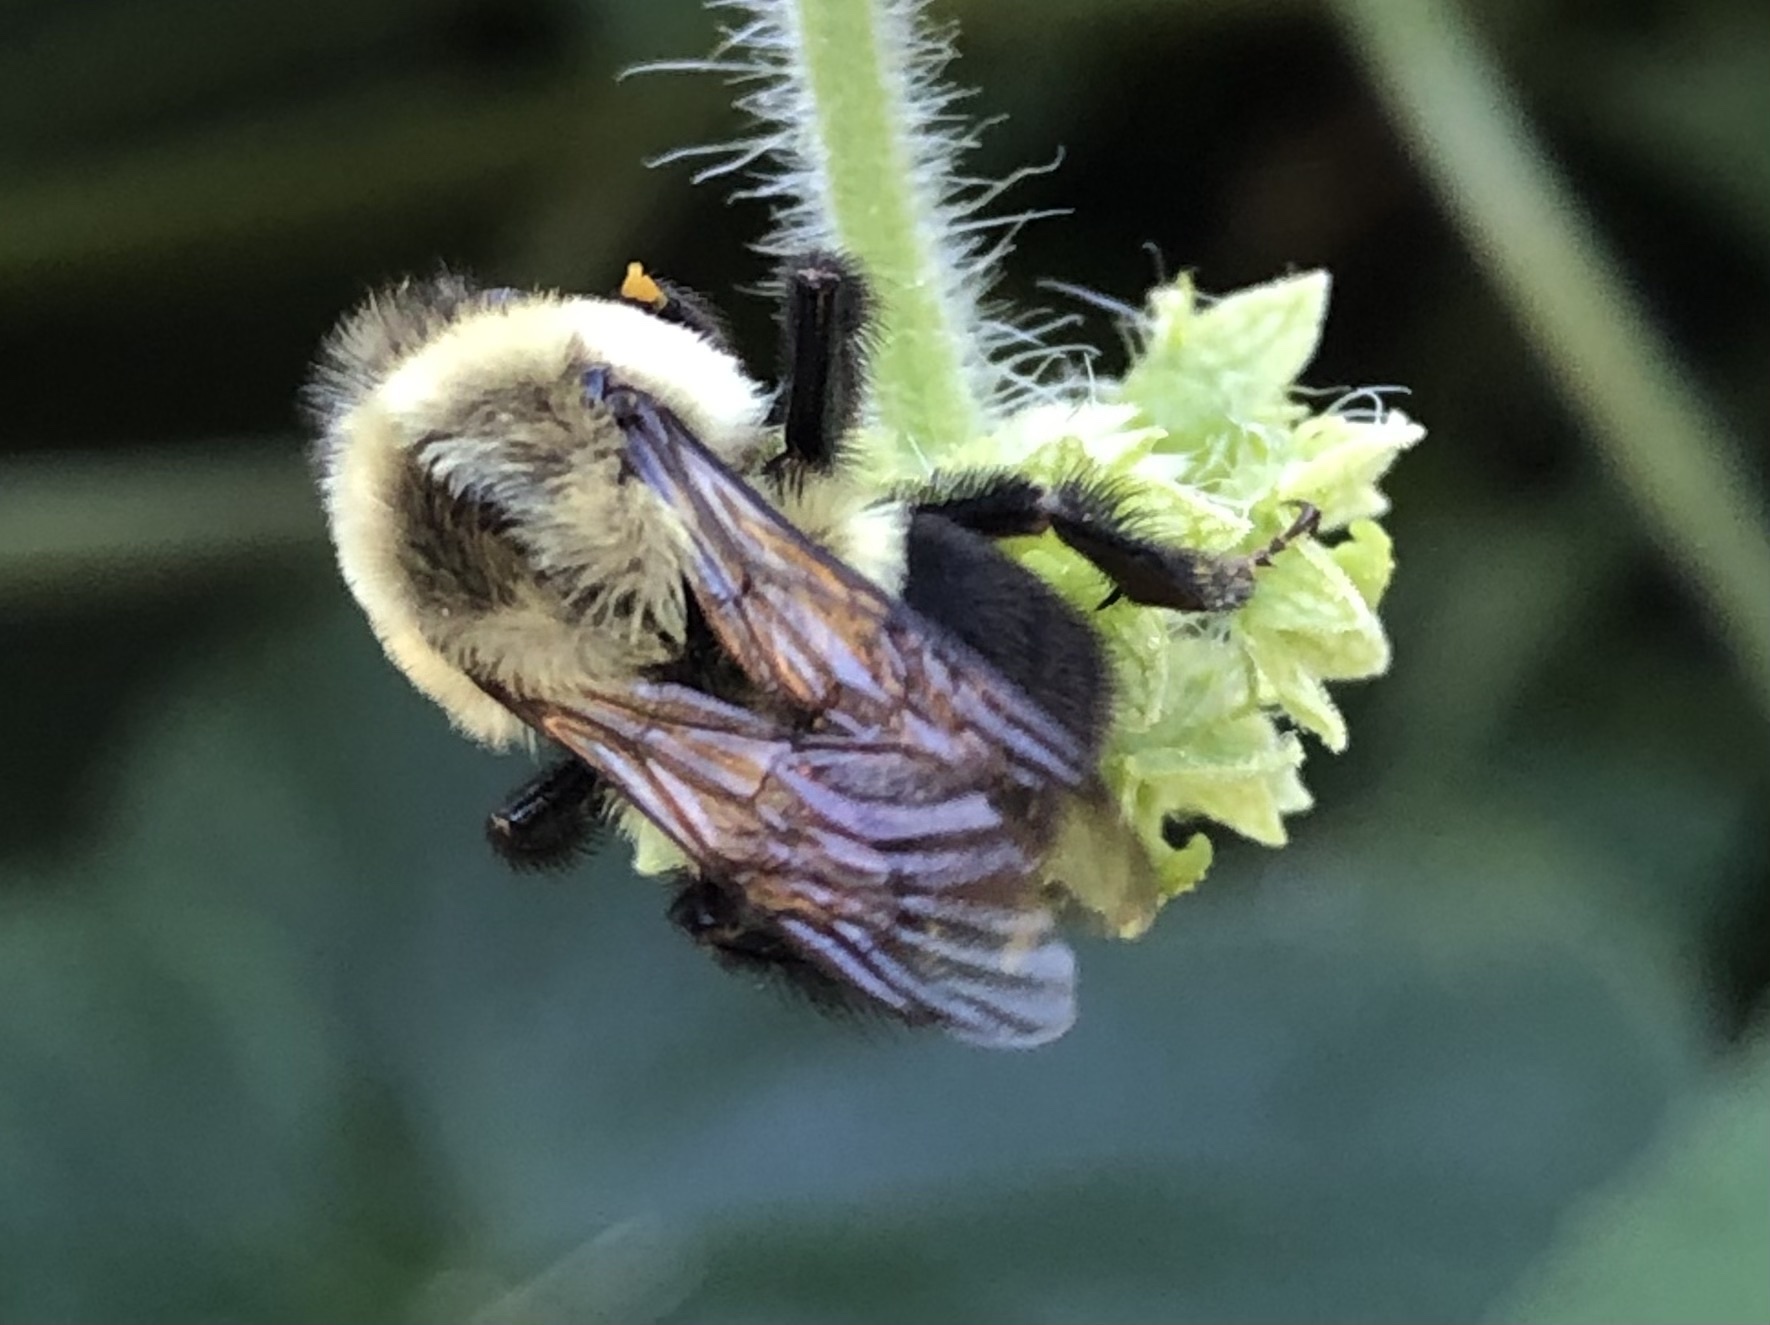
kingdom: Animalia
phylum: Arthropoda
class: Insecta
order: Hymenoptera
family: Apidae
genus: Bombus
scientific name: Bombus impatiens
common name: Common eastern bumble bee
